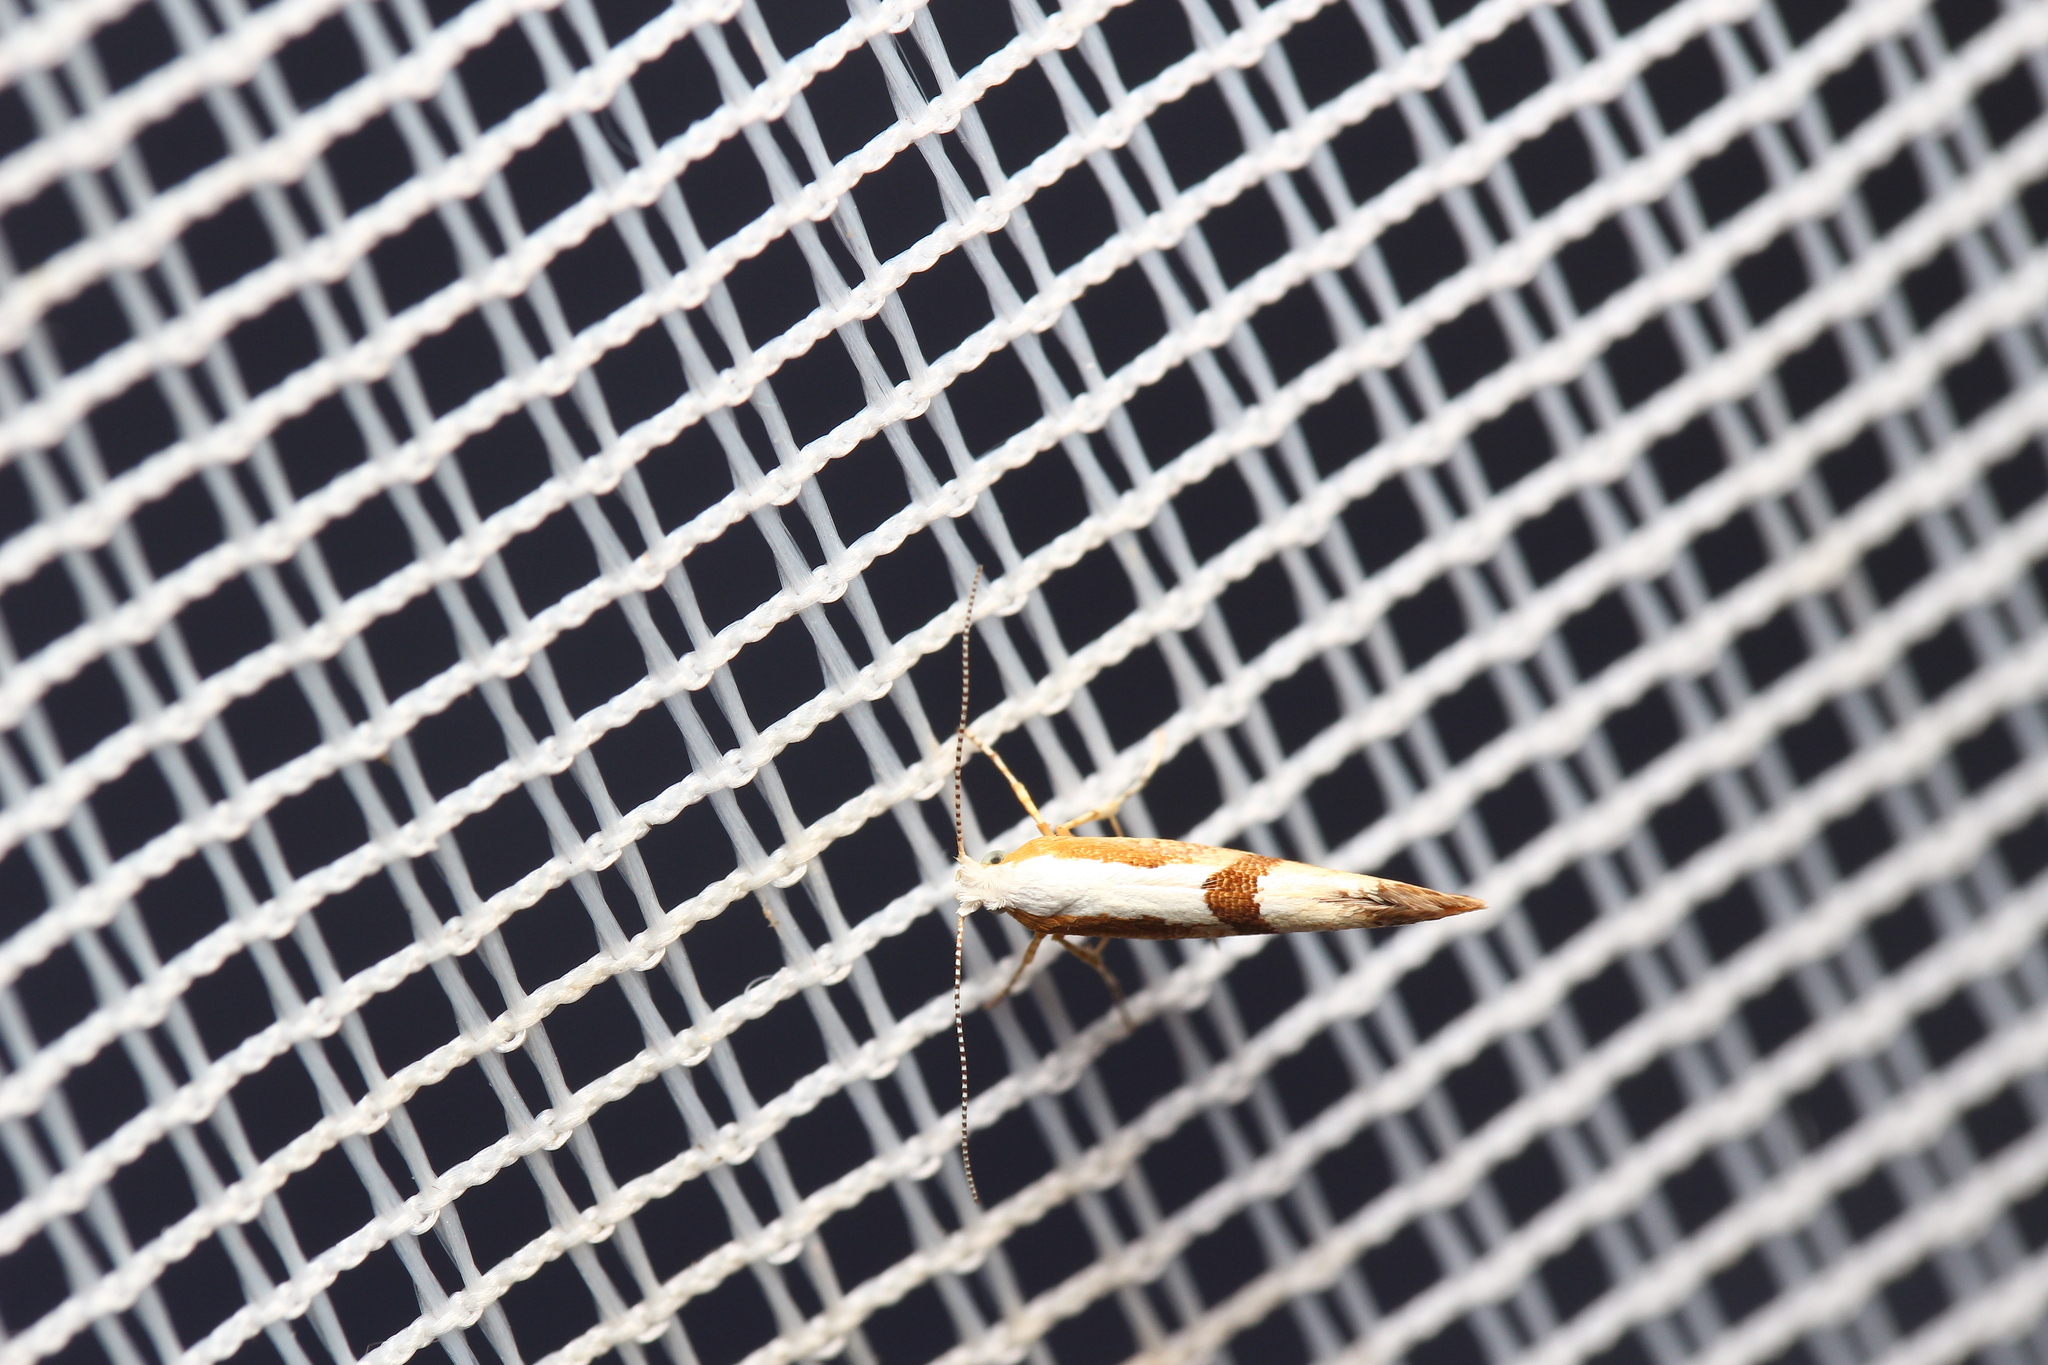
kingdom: Animalia
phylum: Arthropoda
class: Insecta
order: Lepidoptera
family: Argyresthiidae
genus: Argyresthia
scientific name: Argyresthia pruniella
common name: Cherry fruit moth
